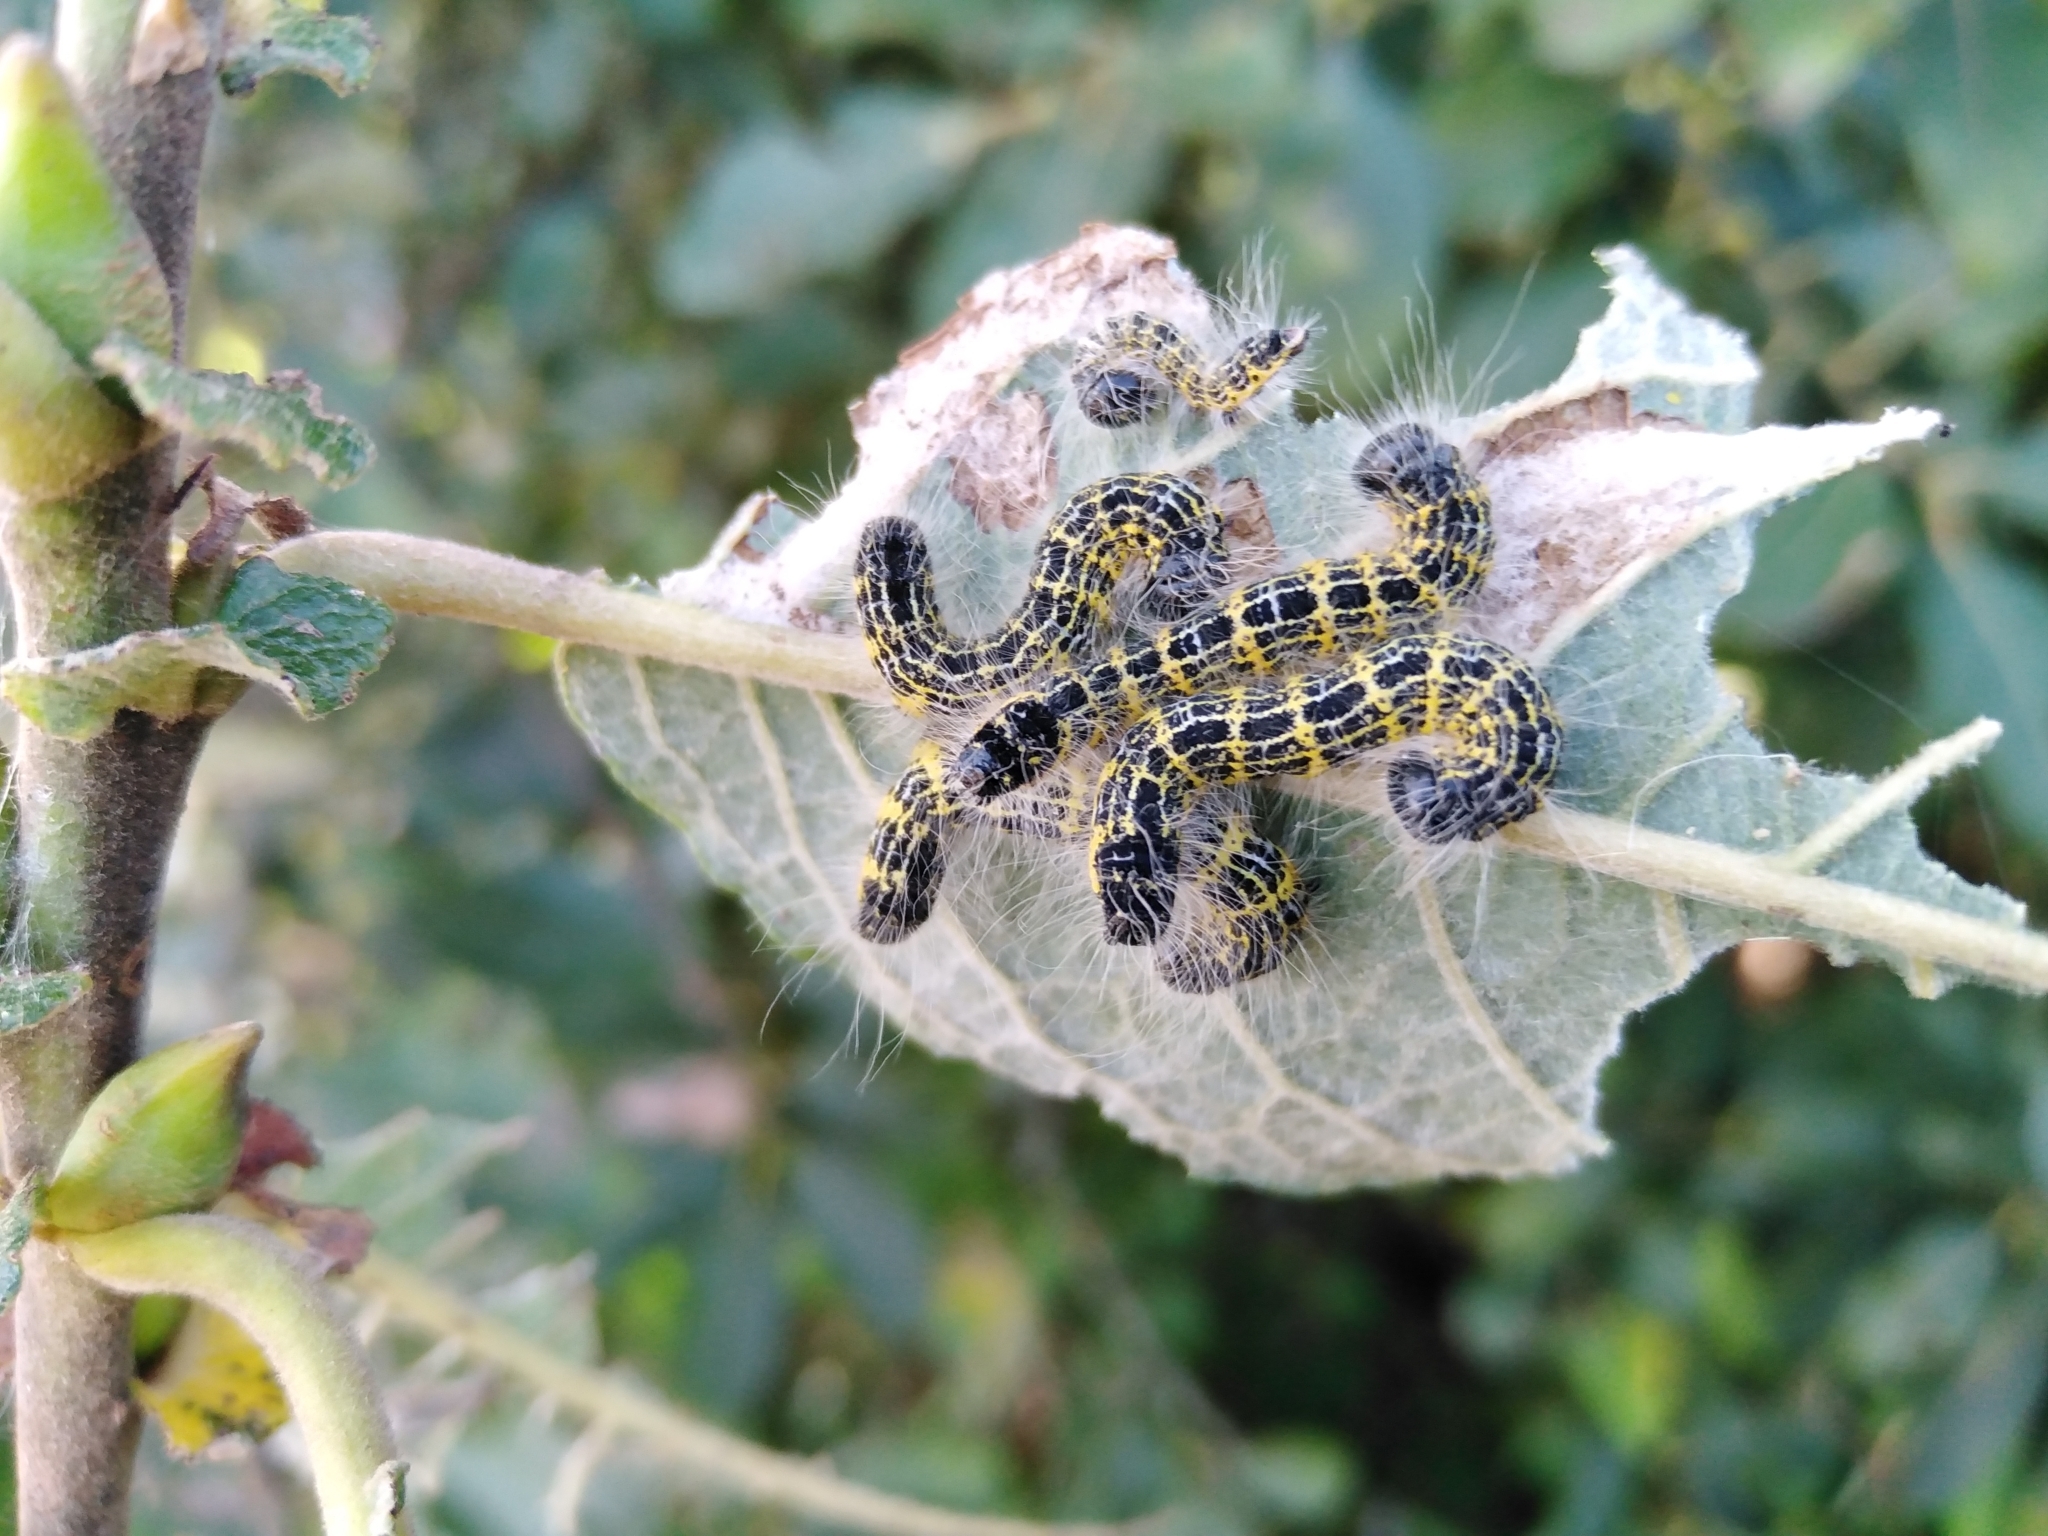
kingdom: Animalia
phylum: Arthropoda
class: Insecta
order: Lepidoptera
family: Notodontidae
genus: Phalera
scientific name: Phalera bucephala
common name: Buff-tip
